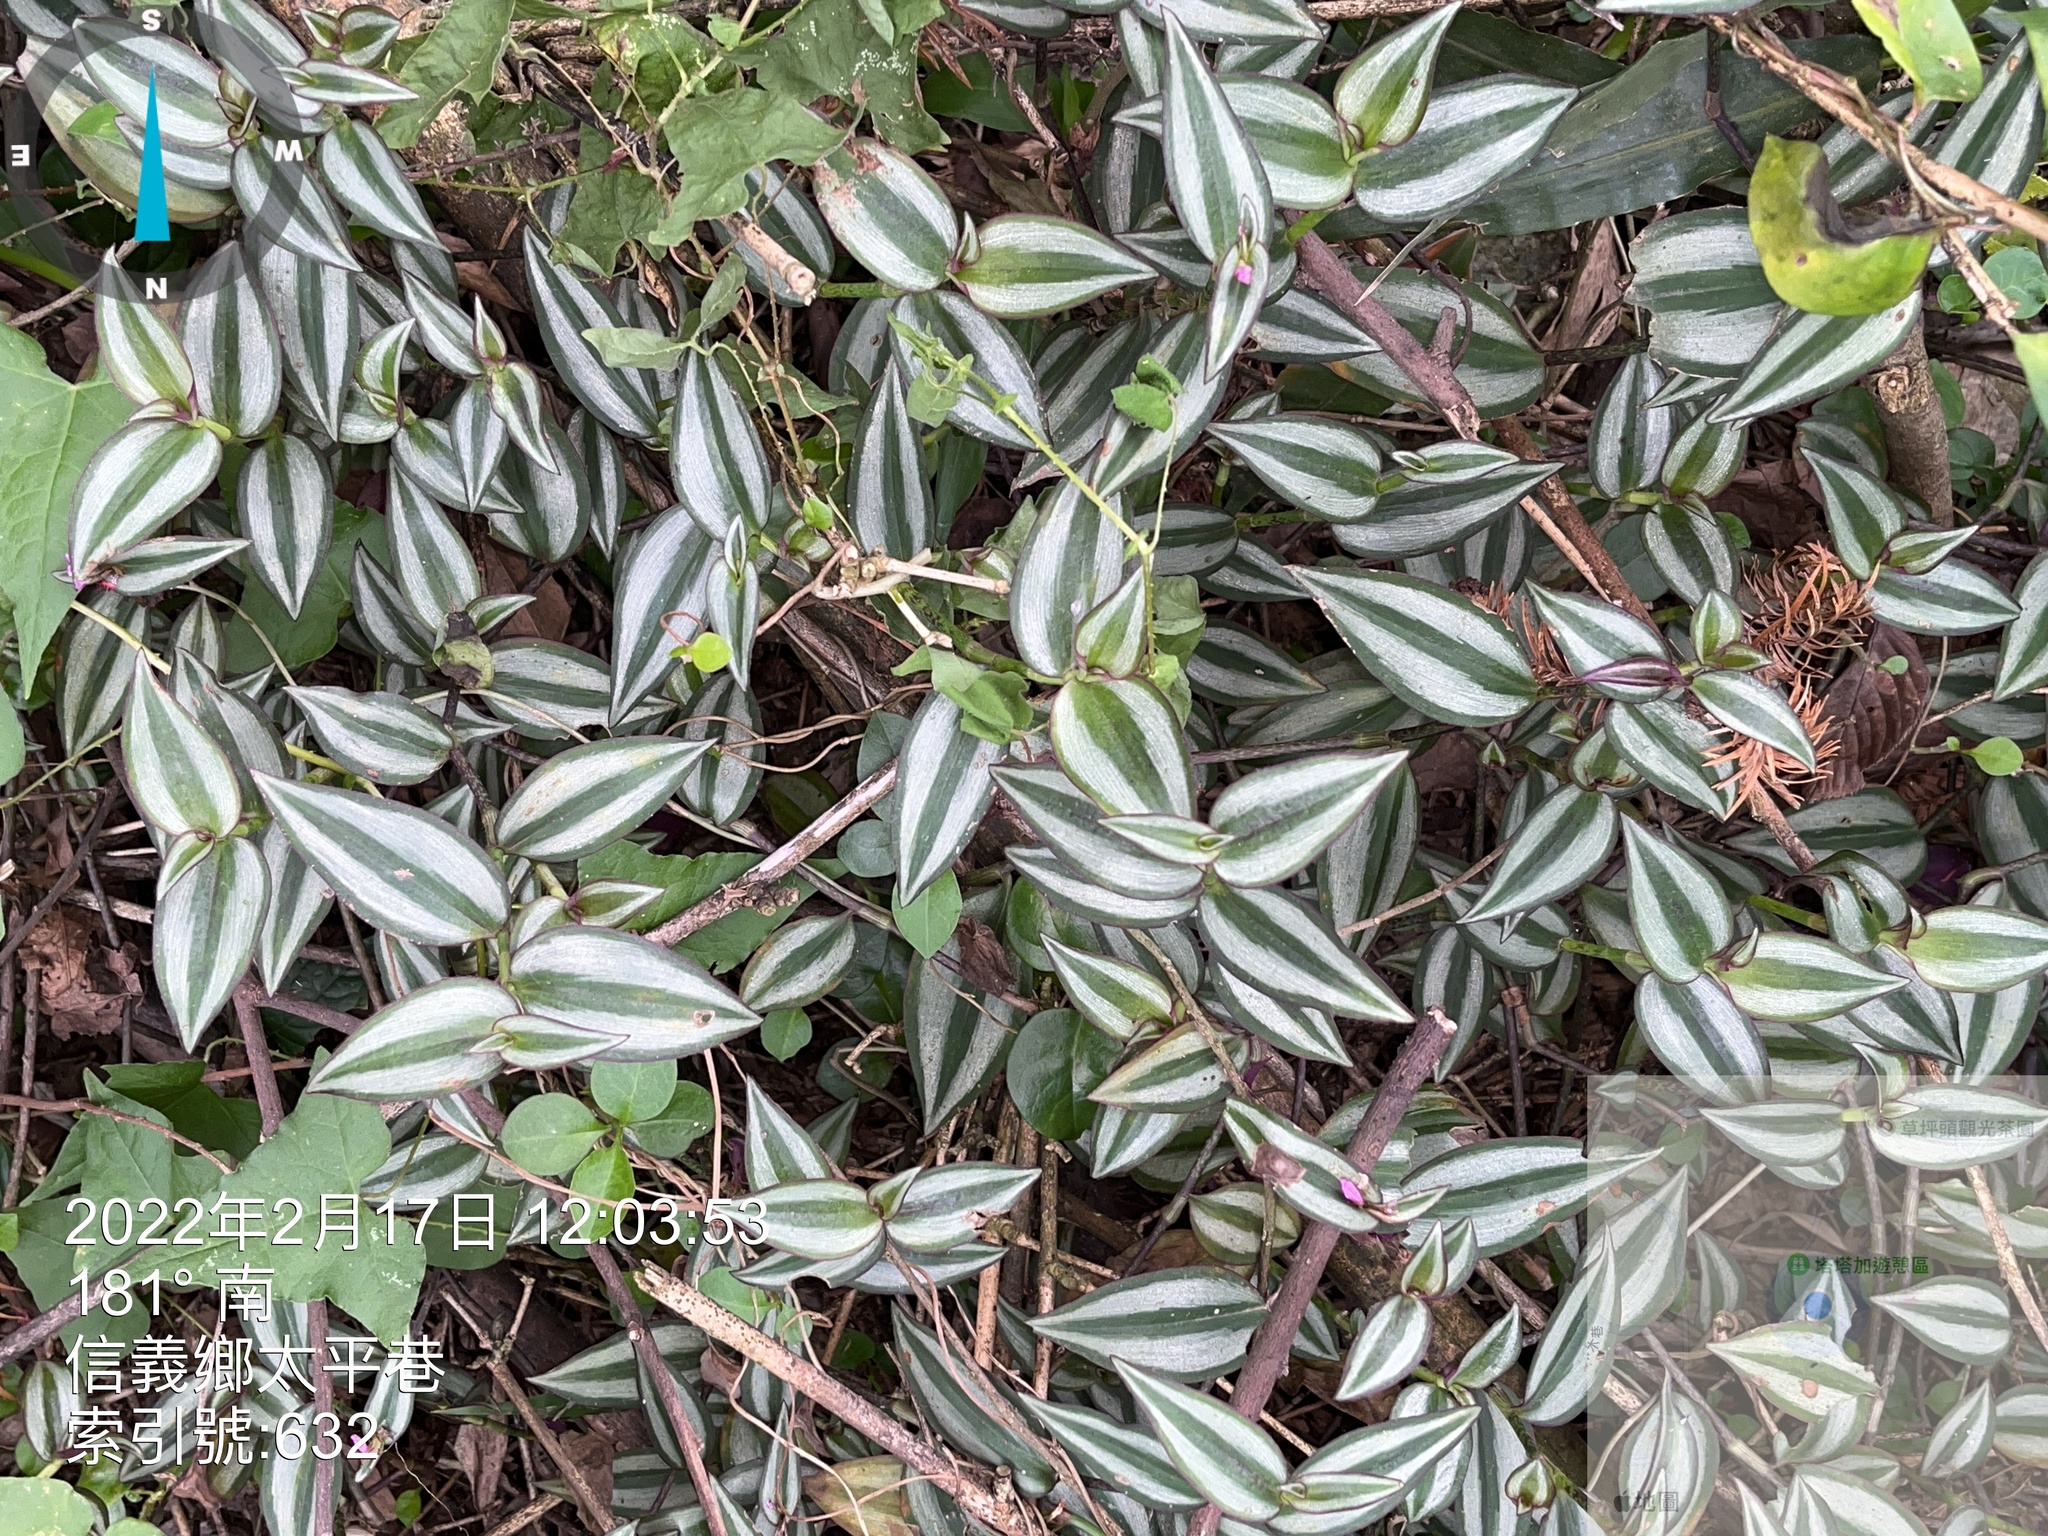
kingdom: Plantae
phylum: Tracheophyta
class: Liliopsida
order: Commelinales
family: Commelinaceae
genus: Tradescantia
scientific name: Tradescantia zebrina
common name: Inchplant
